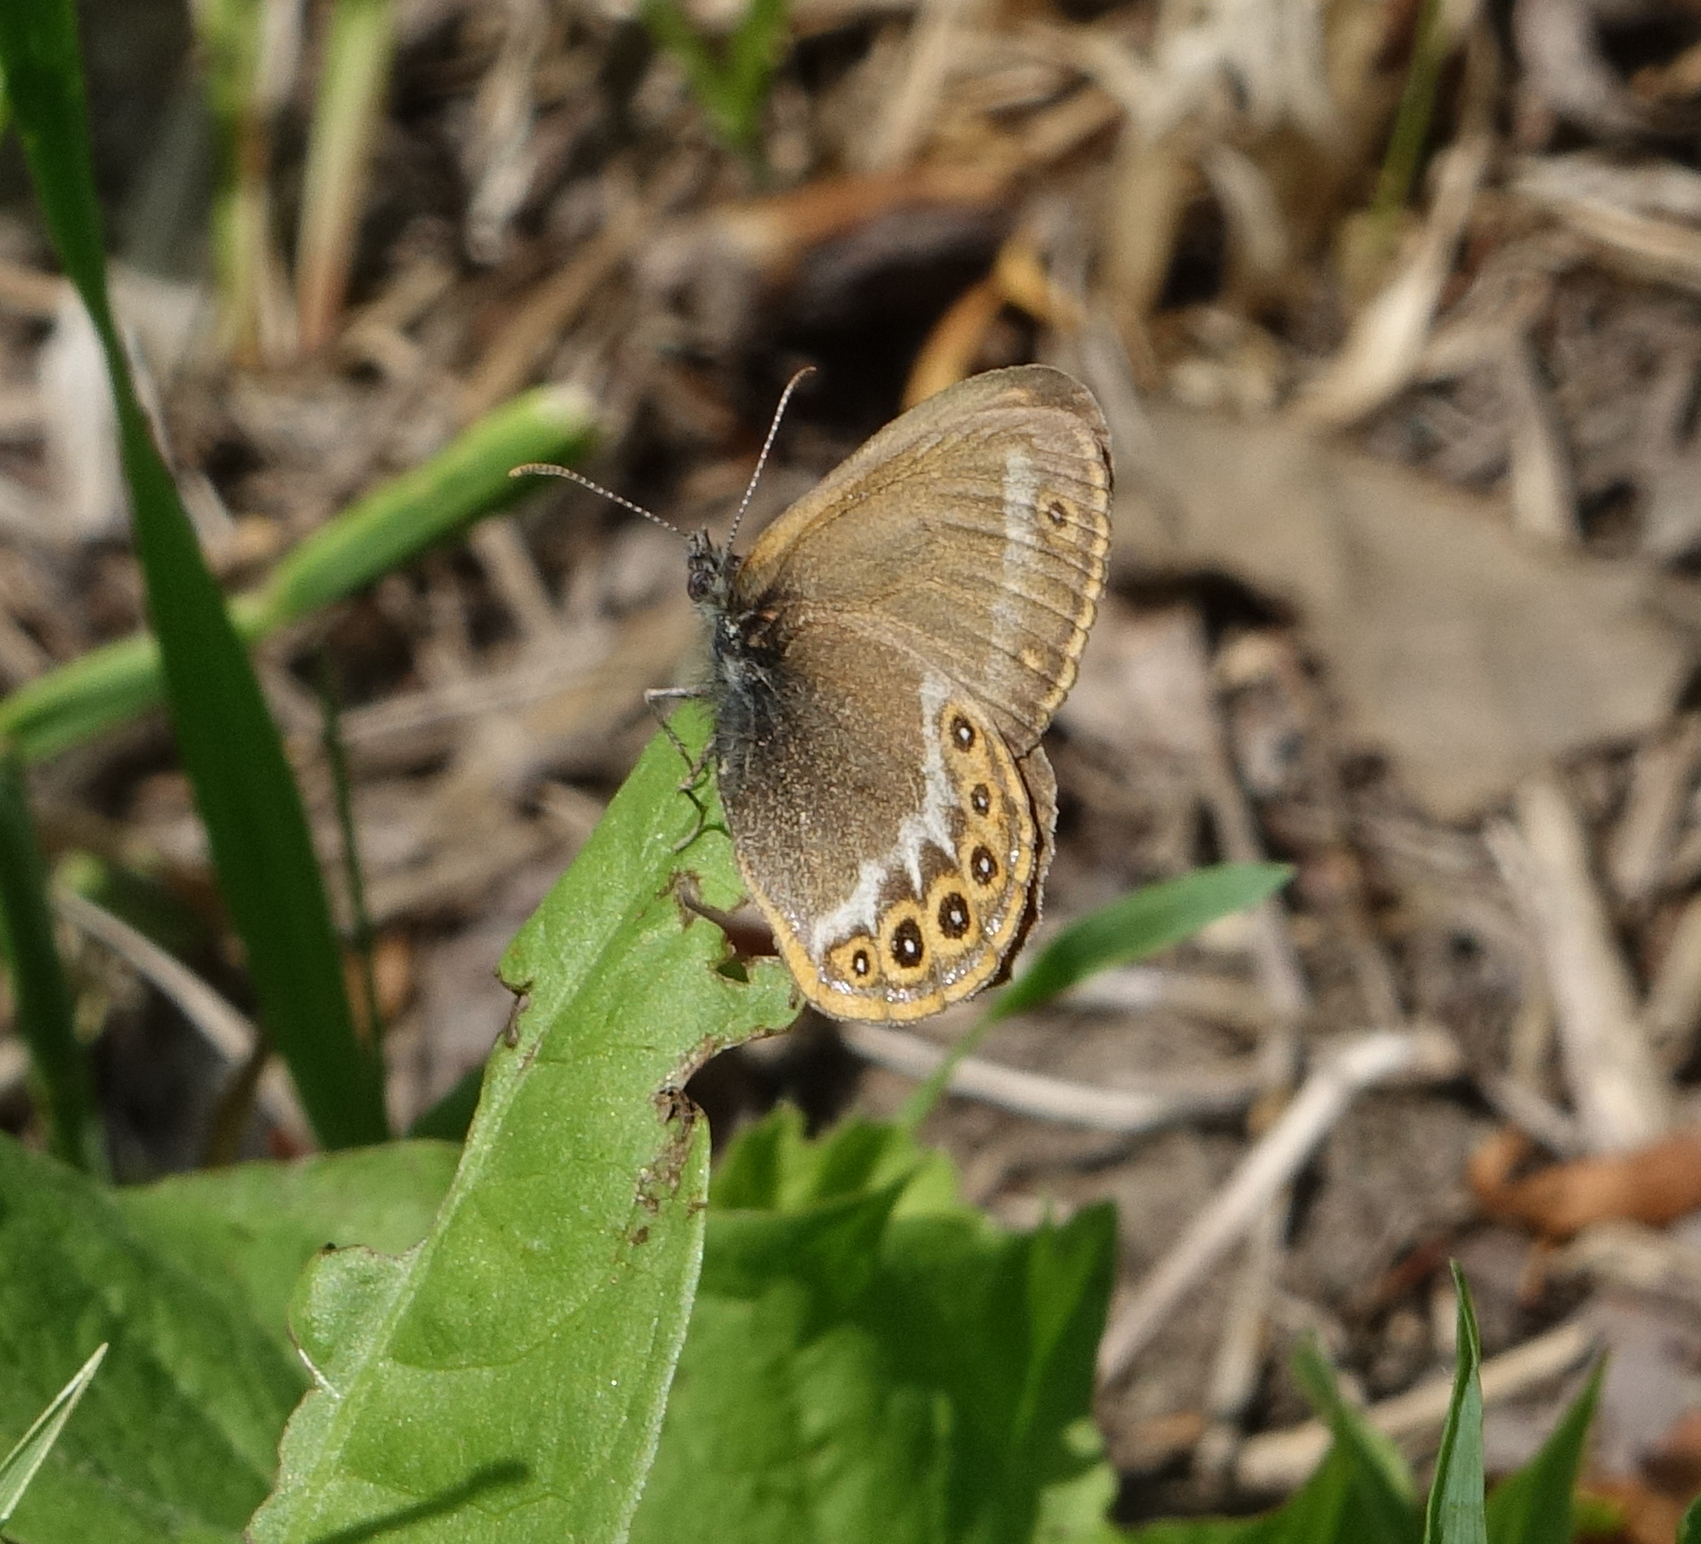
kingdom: Animalia
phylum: Arthropoda
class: Insecta
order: Lepidoptera
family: Nymphalidae
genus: Coenonympha
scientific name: Coenonympha hero
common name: Scarce heath
